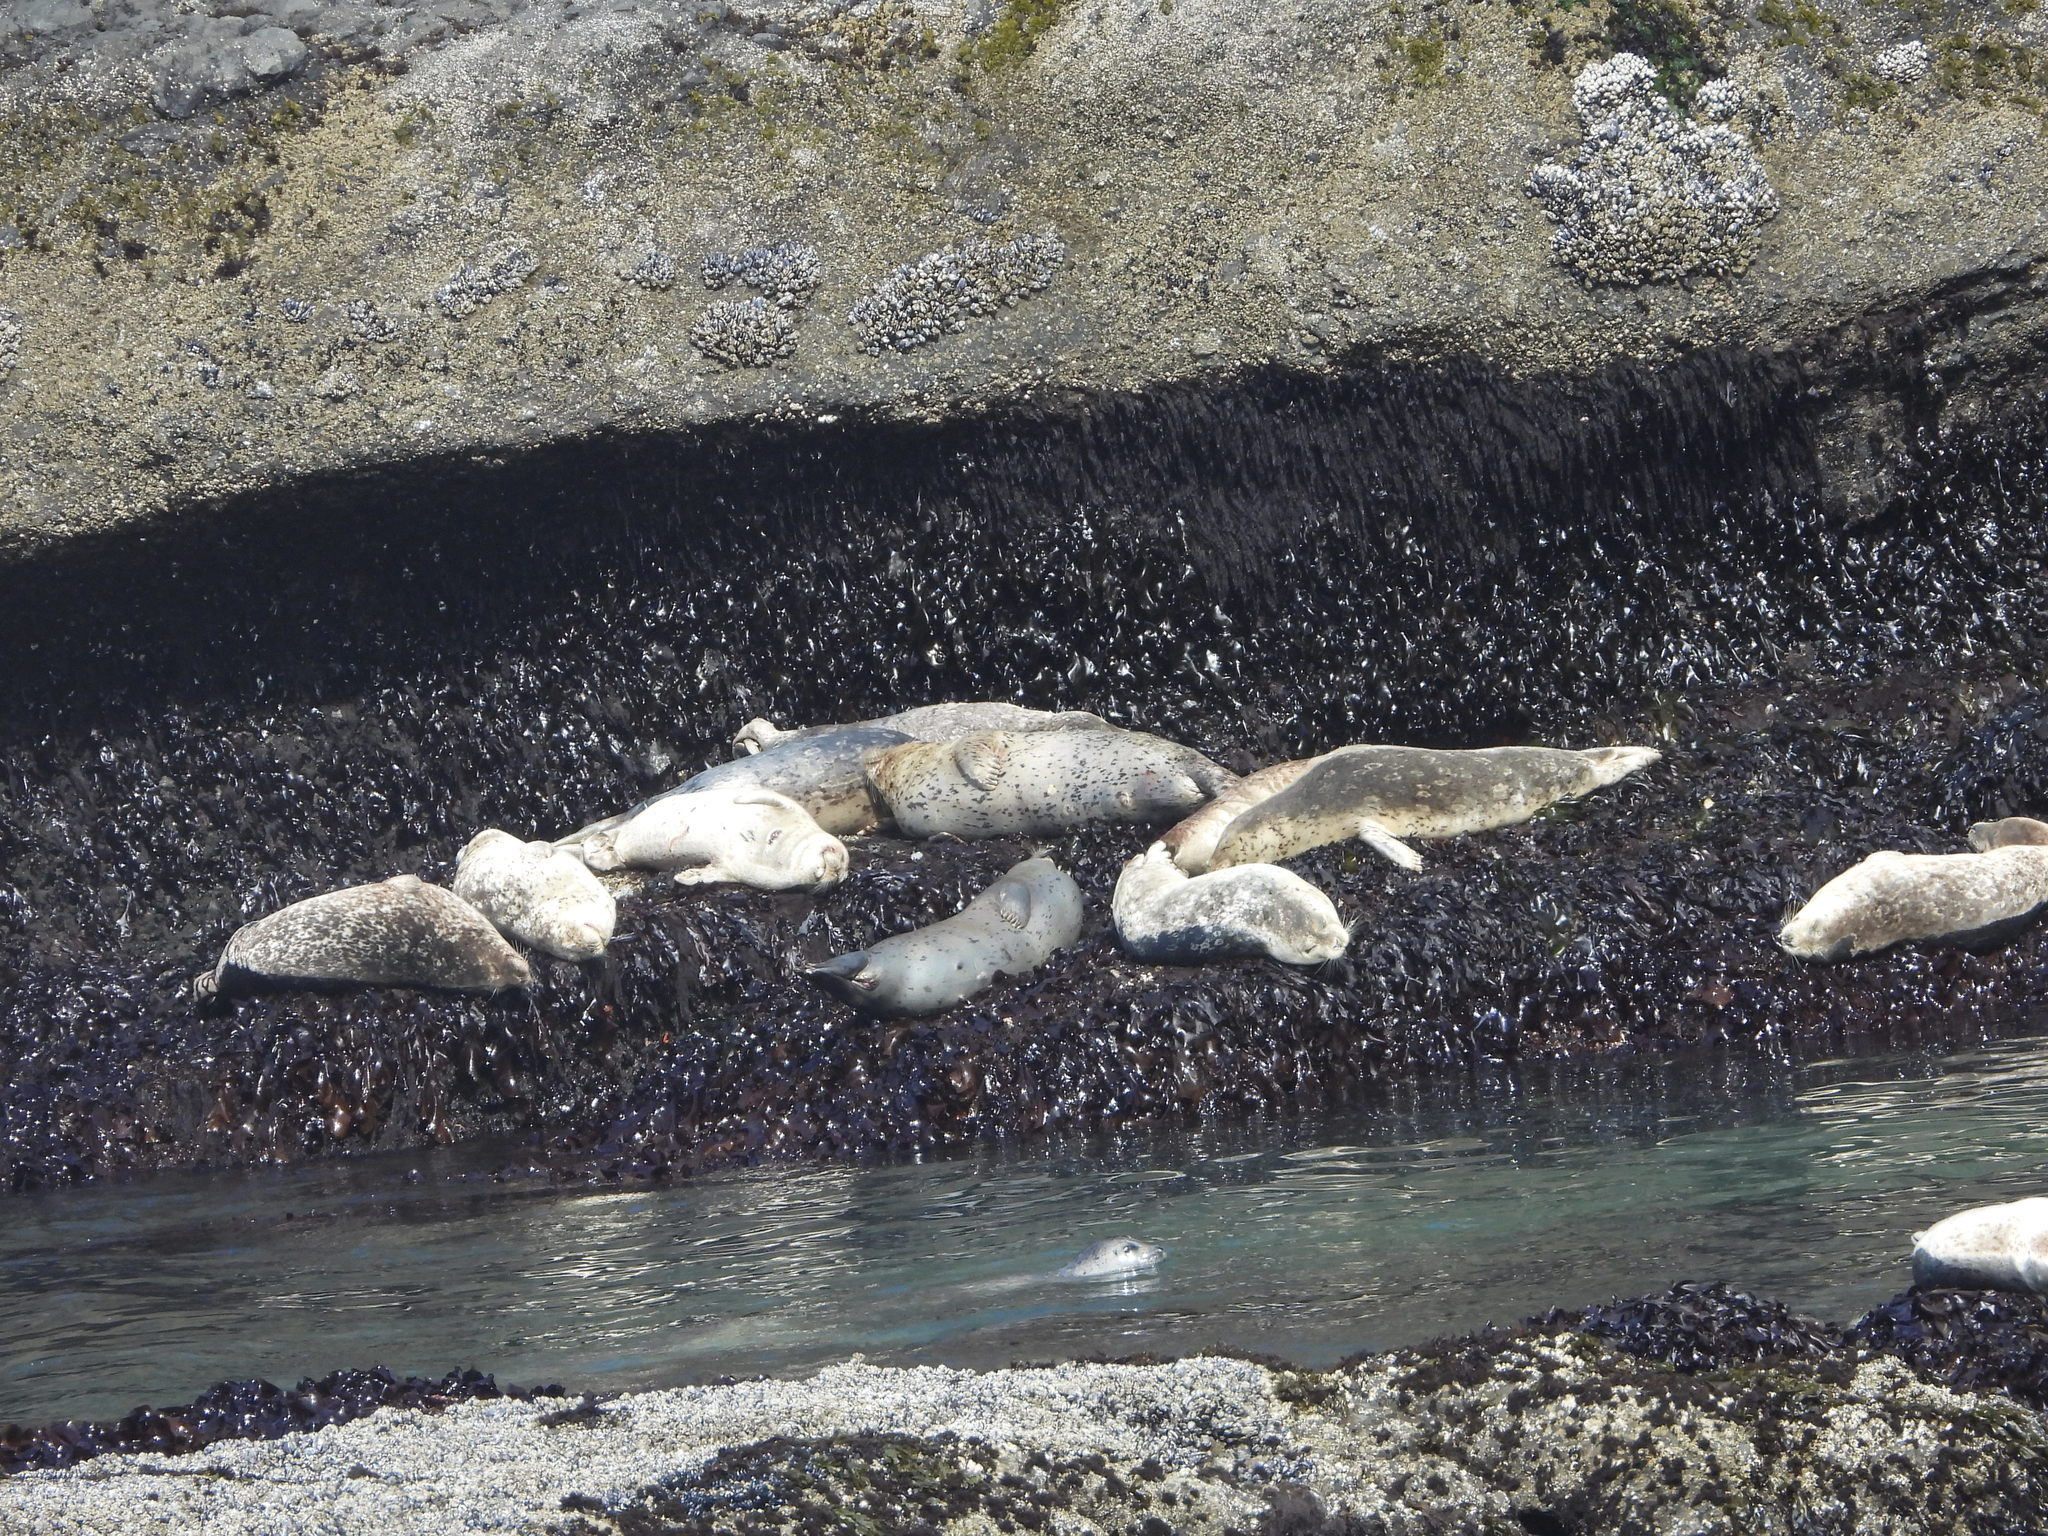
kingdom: Animalia
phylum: Chordata
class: Mammalia
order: Carnivora
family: Phocidae
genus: Phoca
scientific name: Phoca vitulina
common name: Harbor seal
